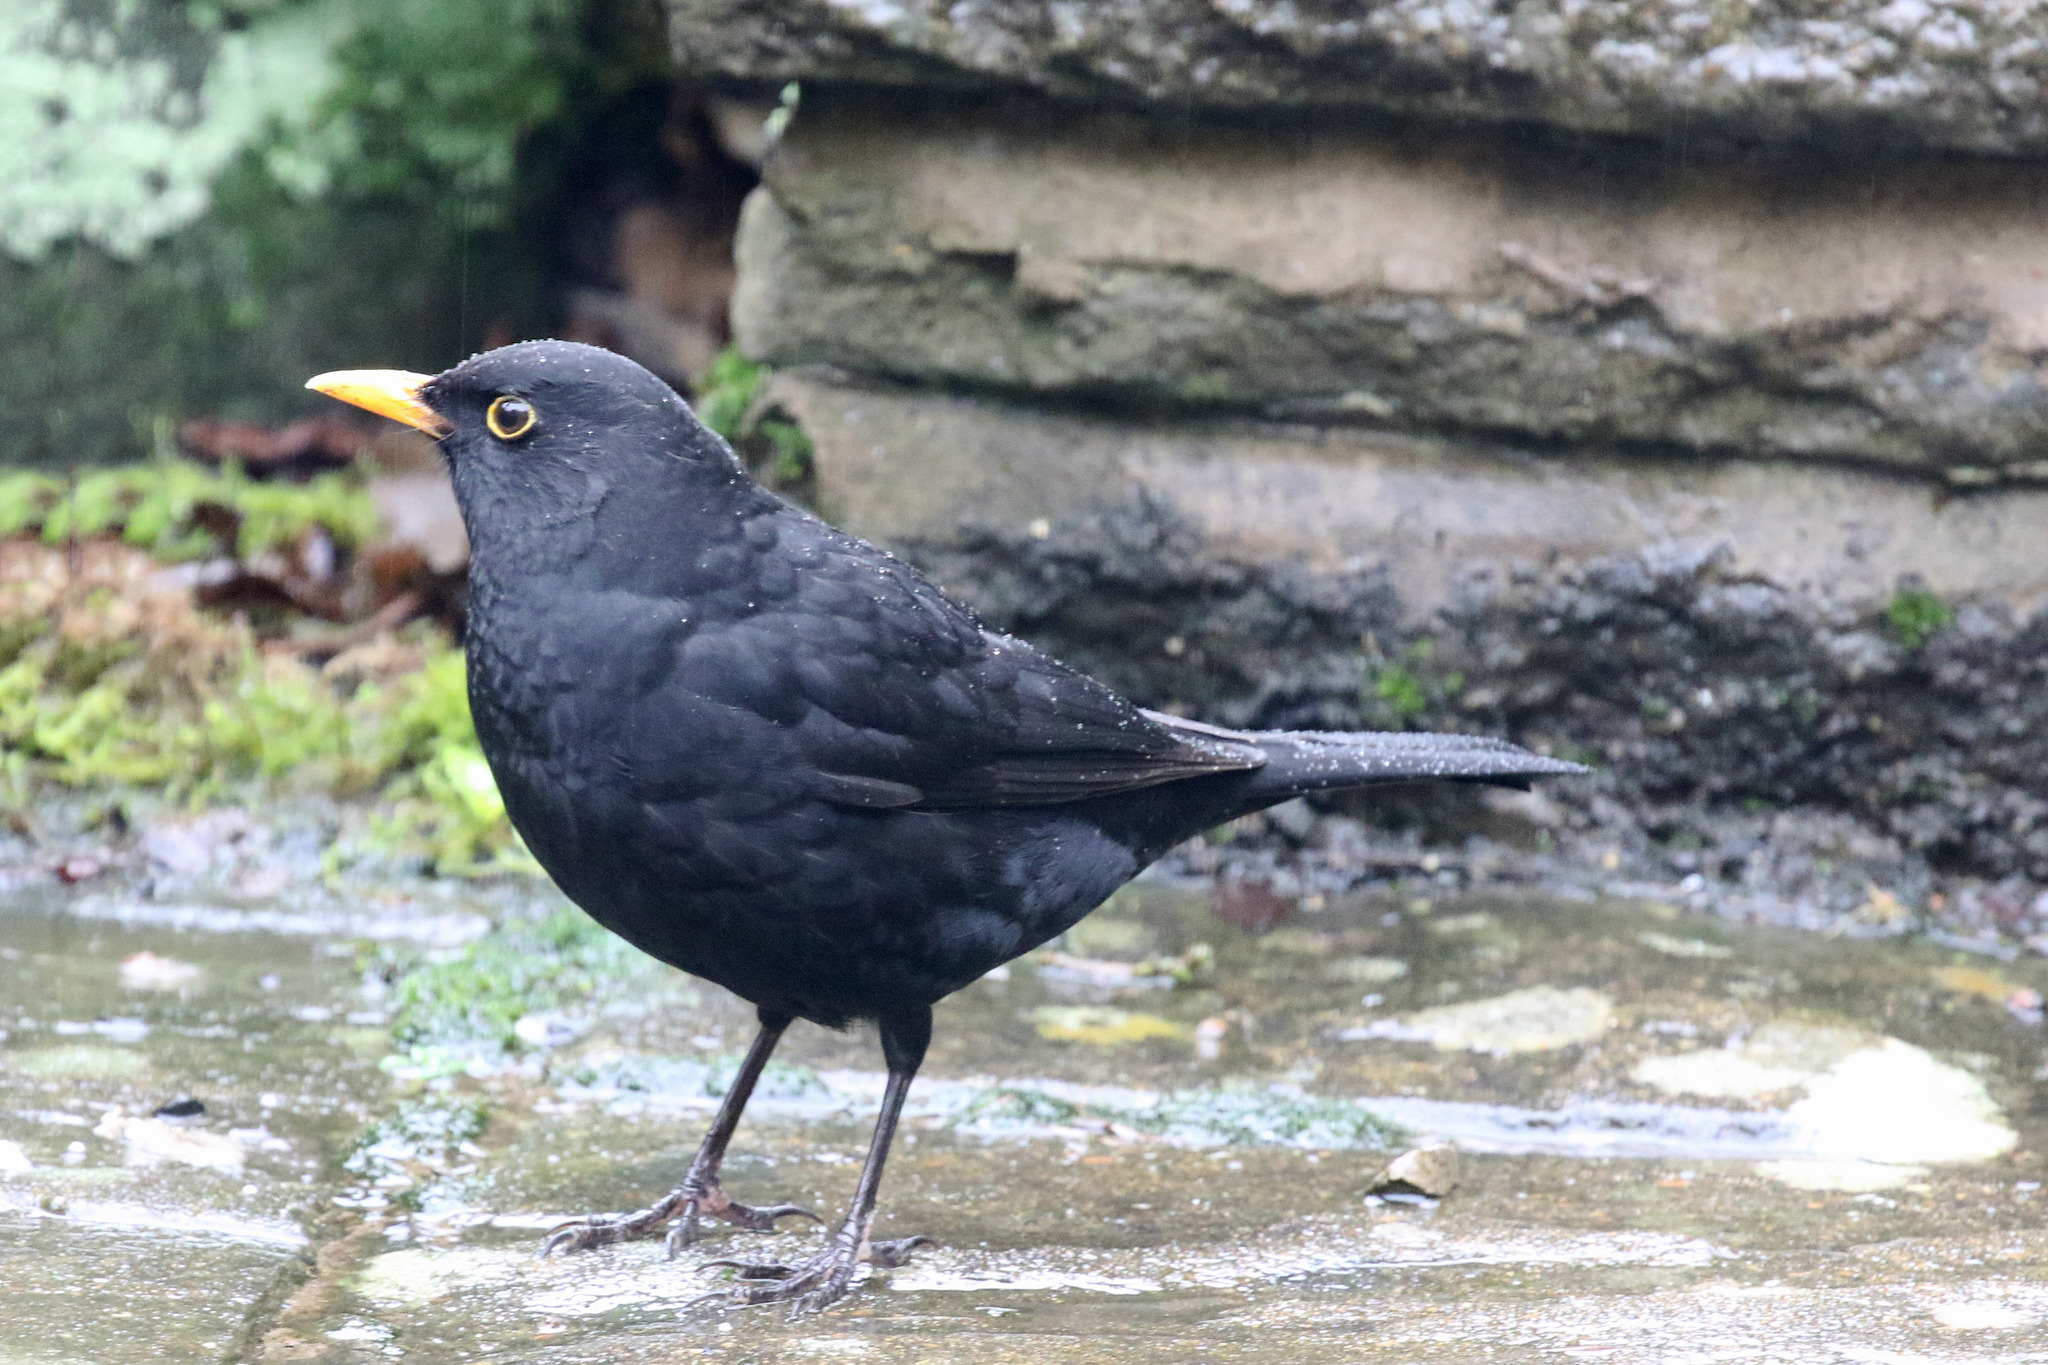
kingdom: Animalia
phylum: Chordata
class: Aves
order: Passeriformes
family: Turdidae
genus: Turdus
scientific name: Turdus merula
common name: Common blackbird
